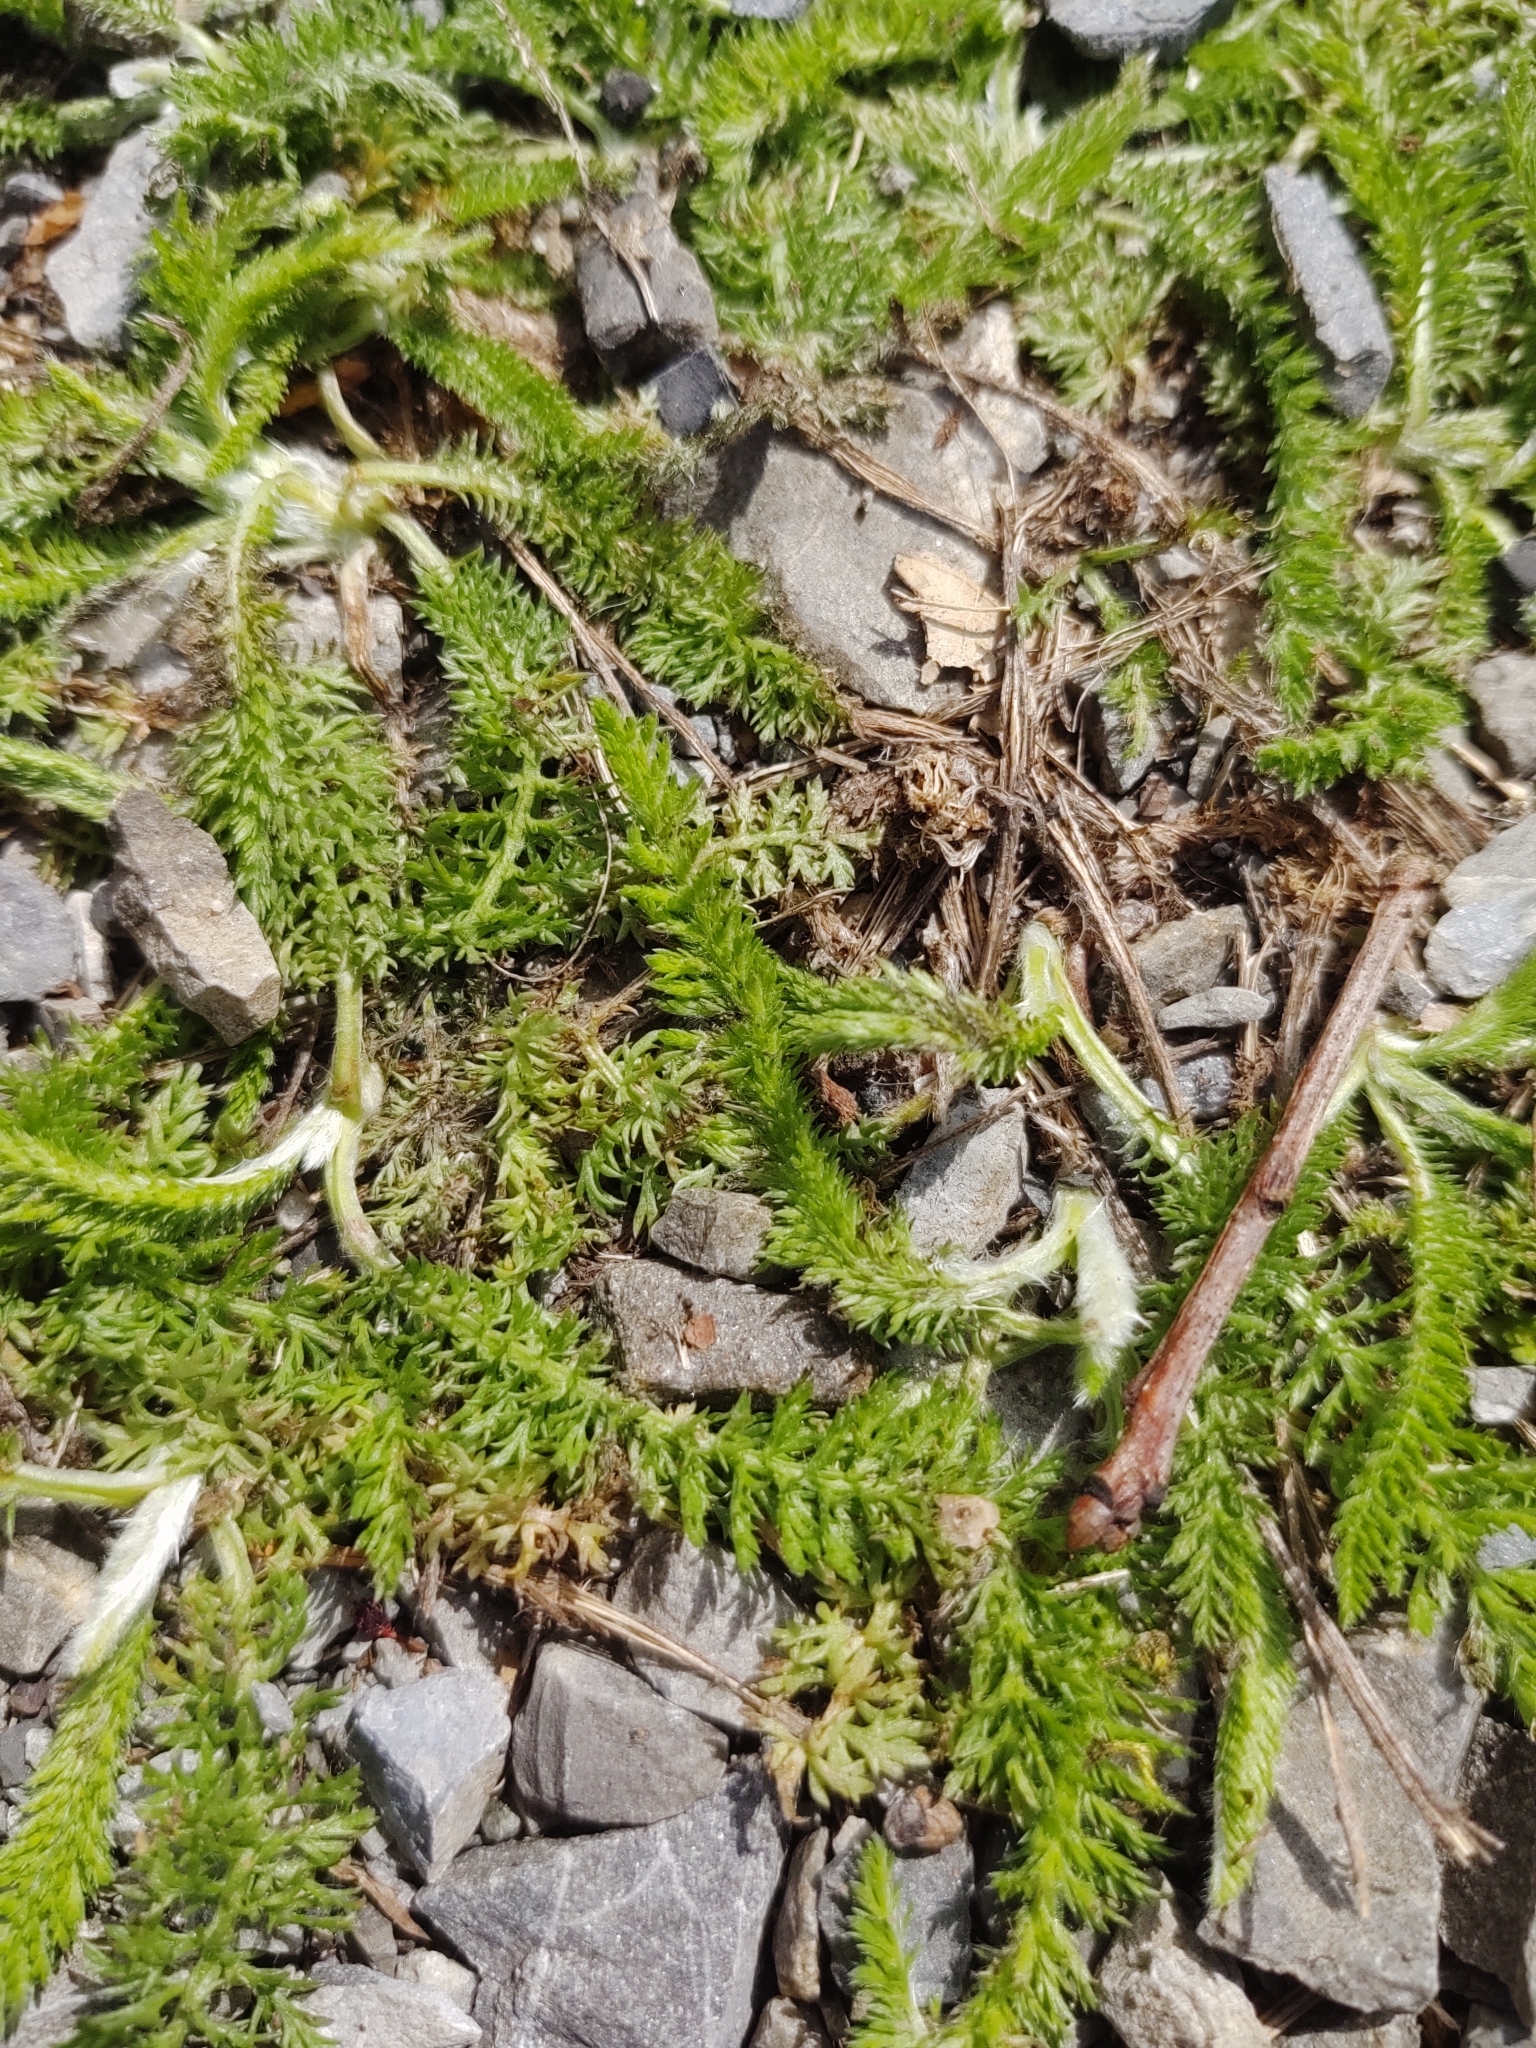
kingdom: Plantae
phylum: Tracheophyta
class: Magnoliopsida
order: Asterales
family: Asteraceae
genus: Achillea
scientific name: Achillea millefolium
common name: Yarrow
